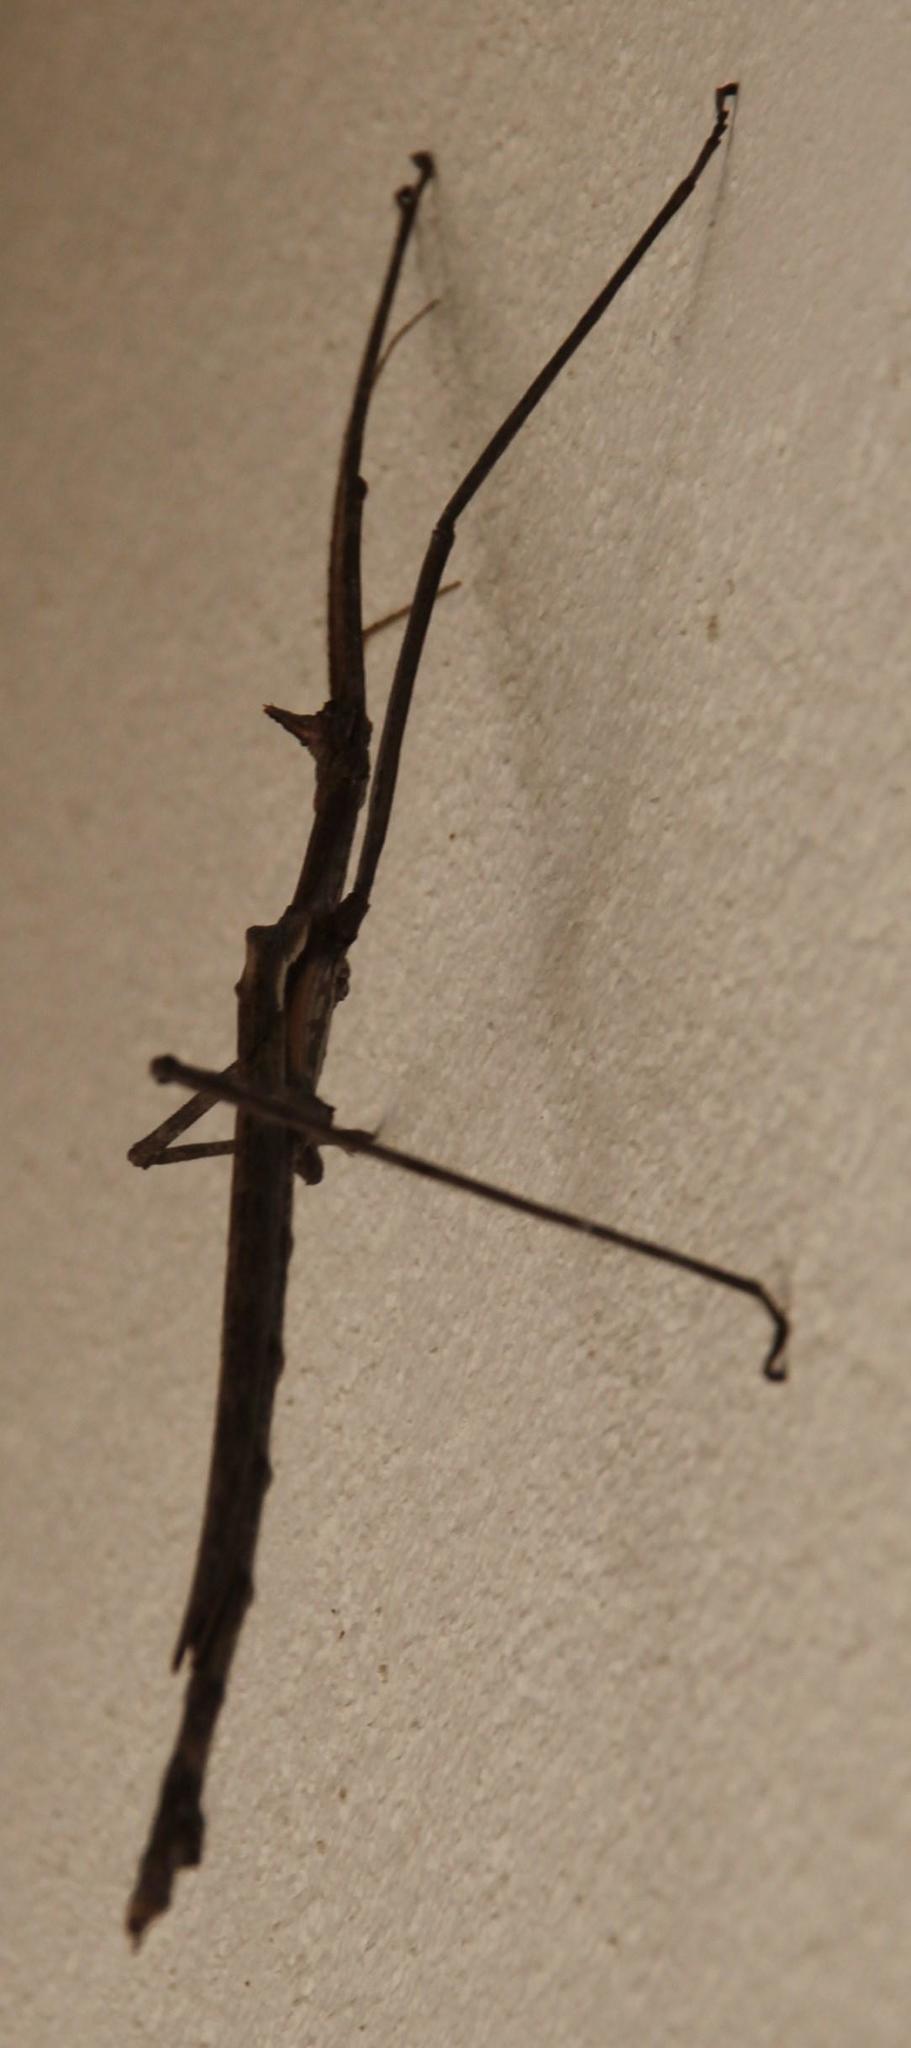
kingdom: Animalia
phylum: Arthropoda
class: Insecta
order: Phasmida
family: Diapheromeridae
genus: Bactrododema
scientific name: Bactrododema haworthii
